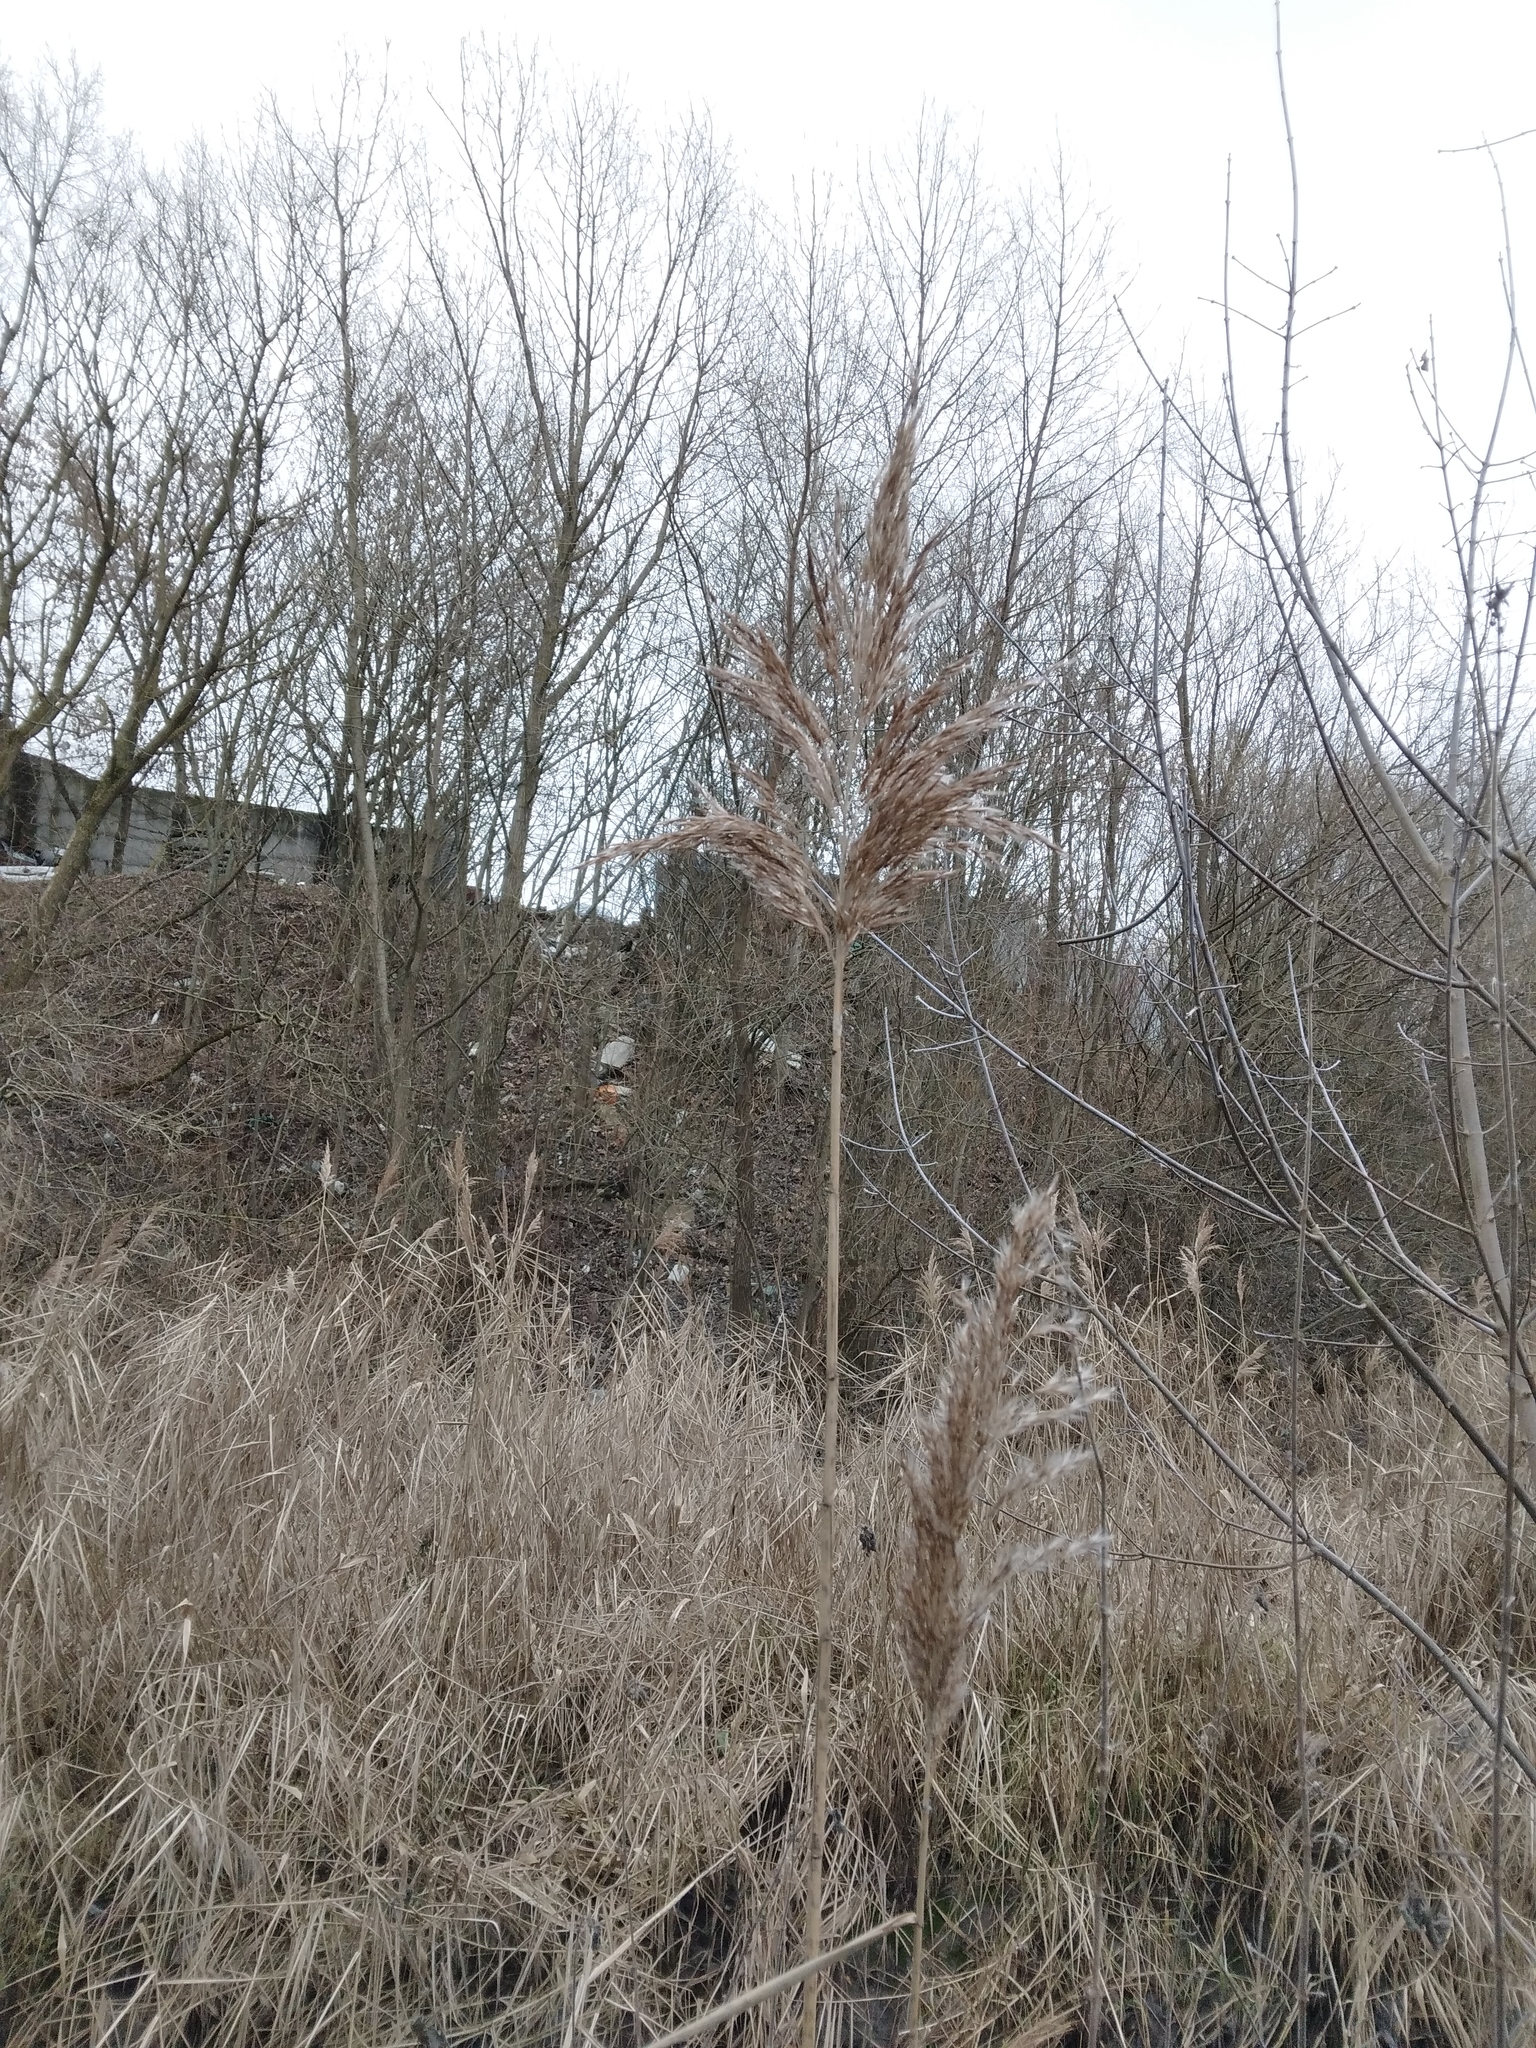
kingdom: Plantae
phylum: Tracheophyta
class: Liliopsida
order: Poales
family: Poaceae
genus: Phragmites
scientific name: Phragmites australis
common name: Common reed
